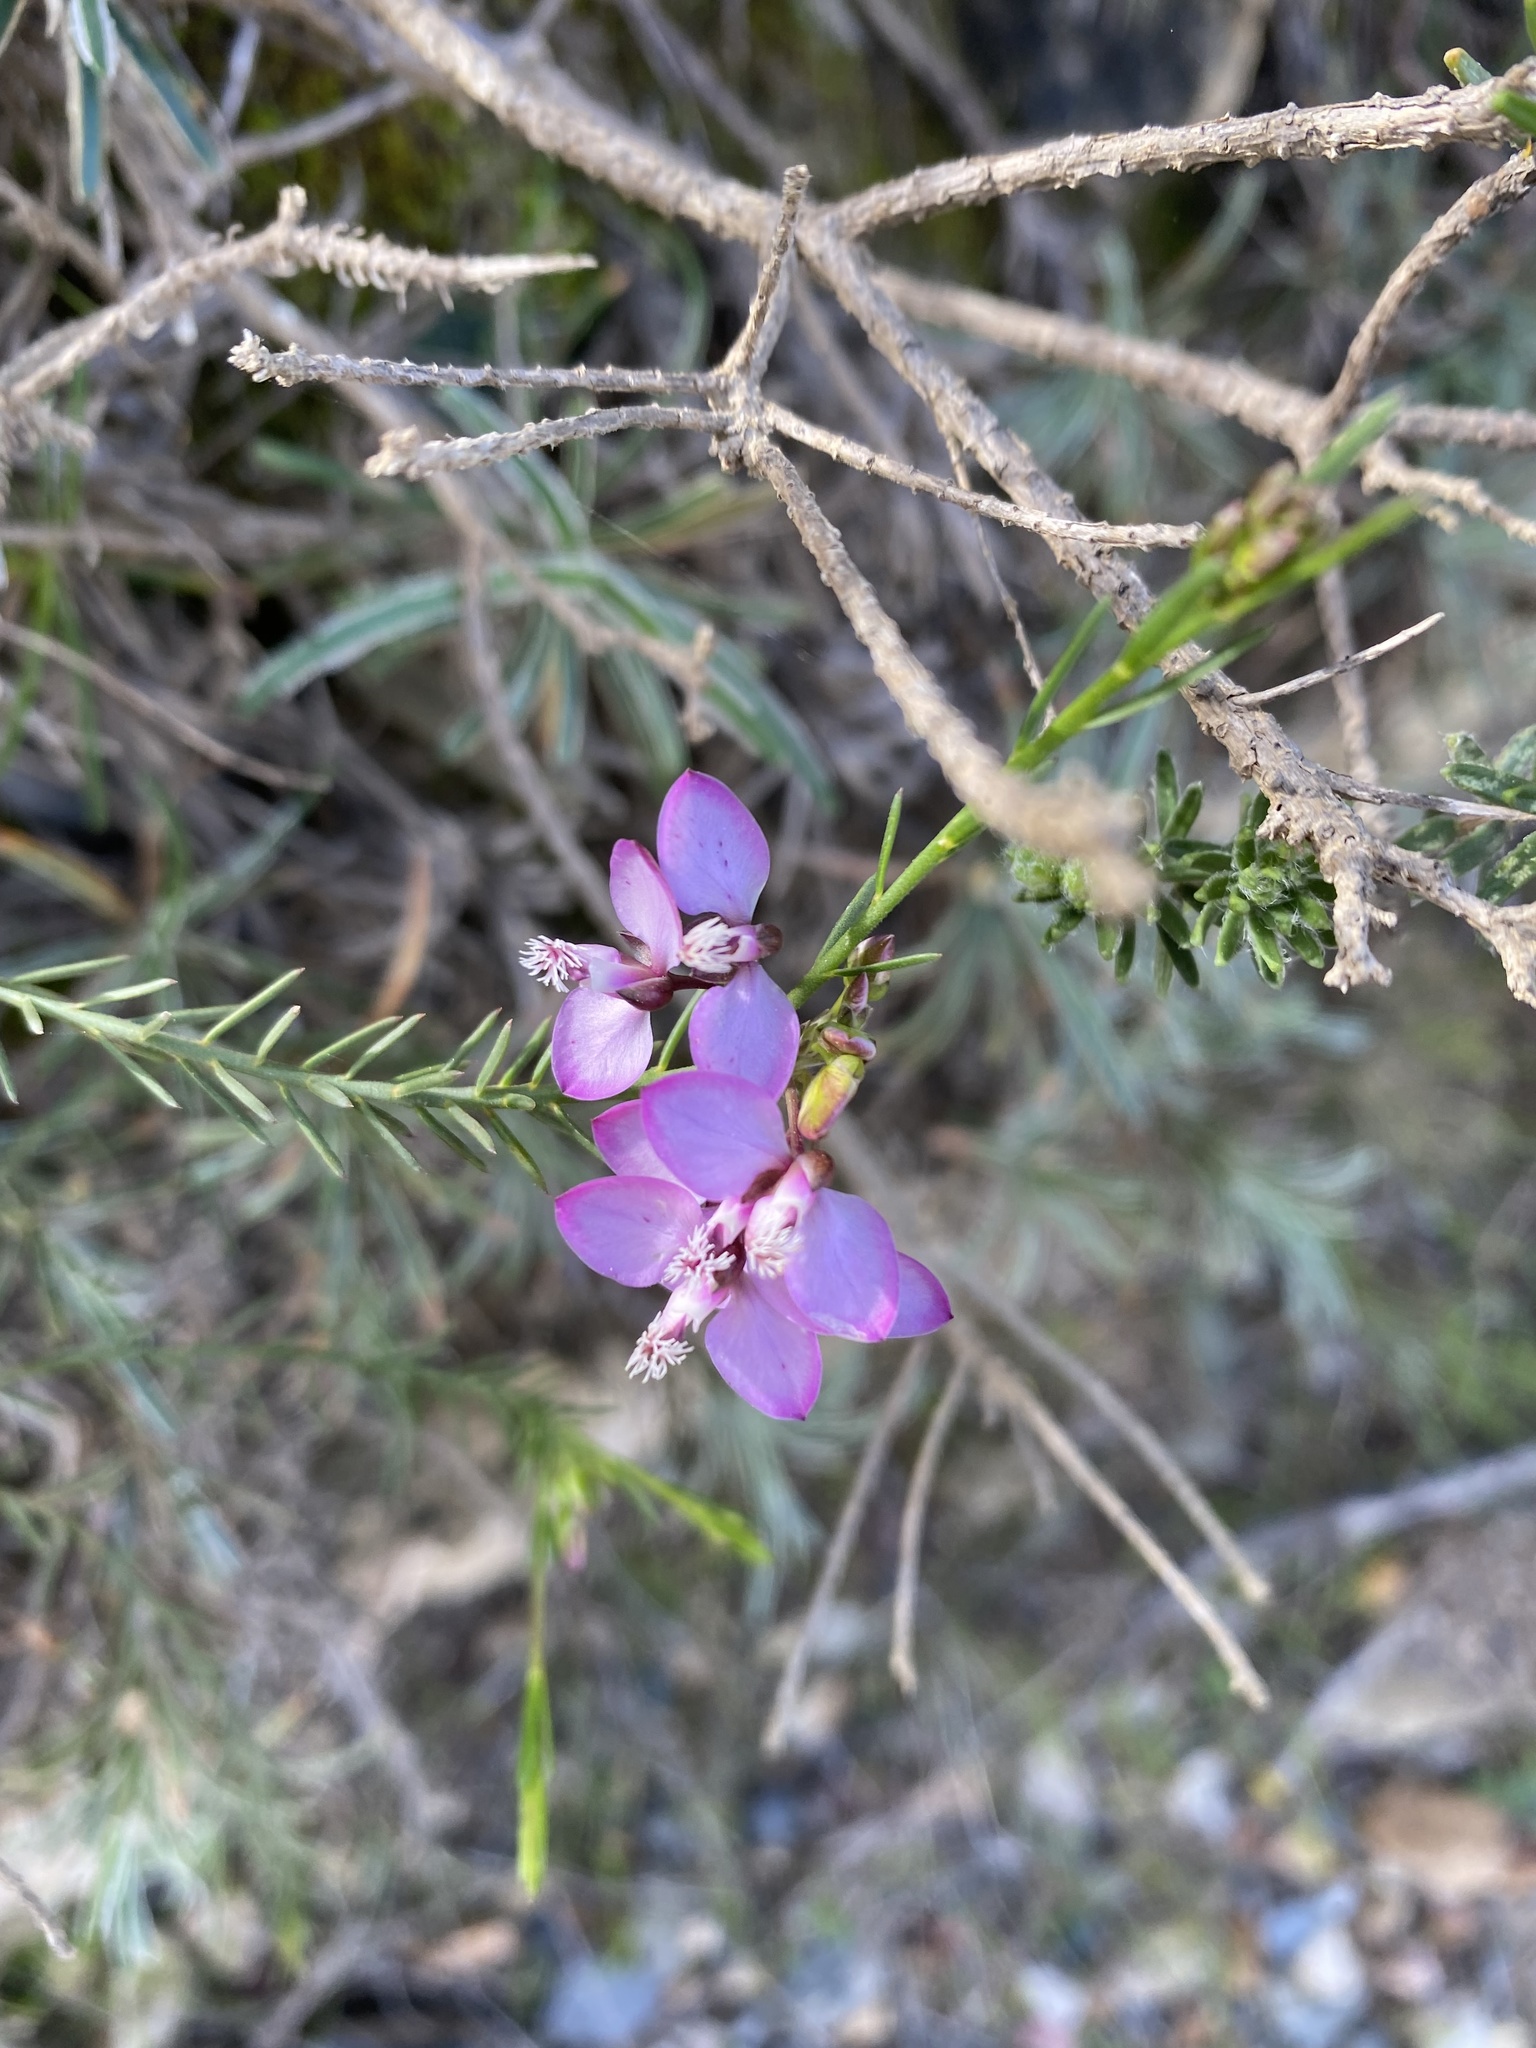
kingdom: Plantae
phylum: Tracheophyta
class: Magnoliopsida
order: Fabales
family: Polygalaceae
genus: Polygala
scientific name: Polygala meridionalis
